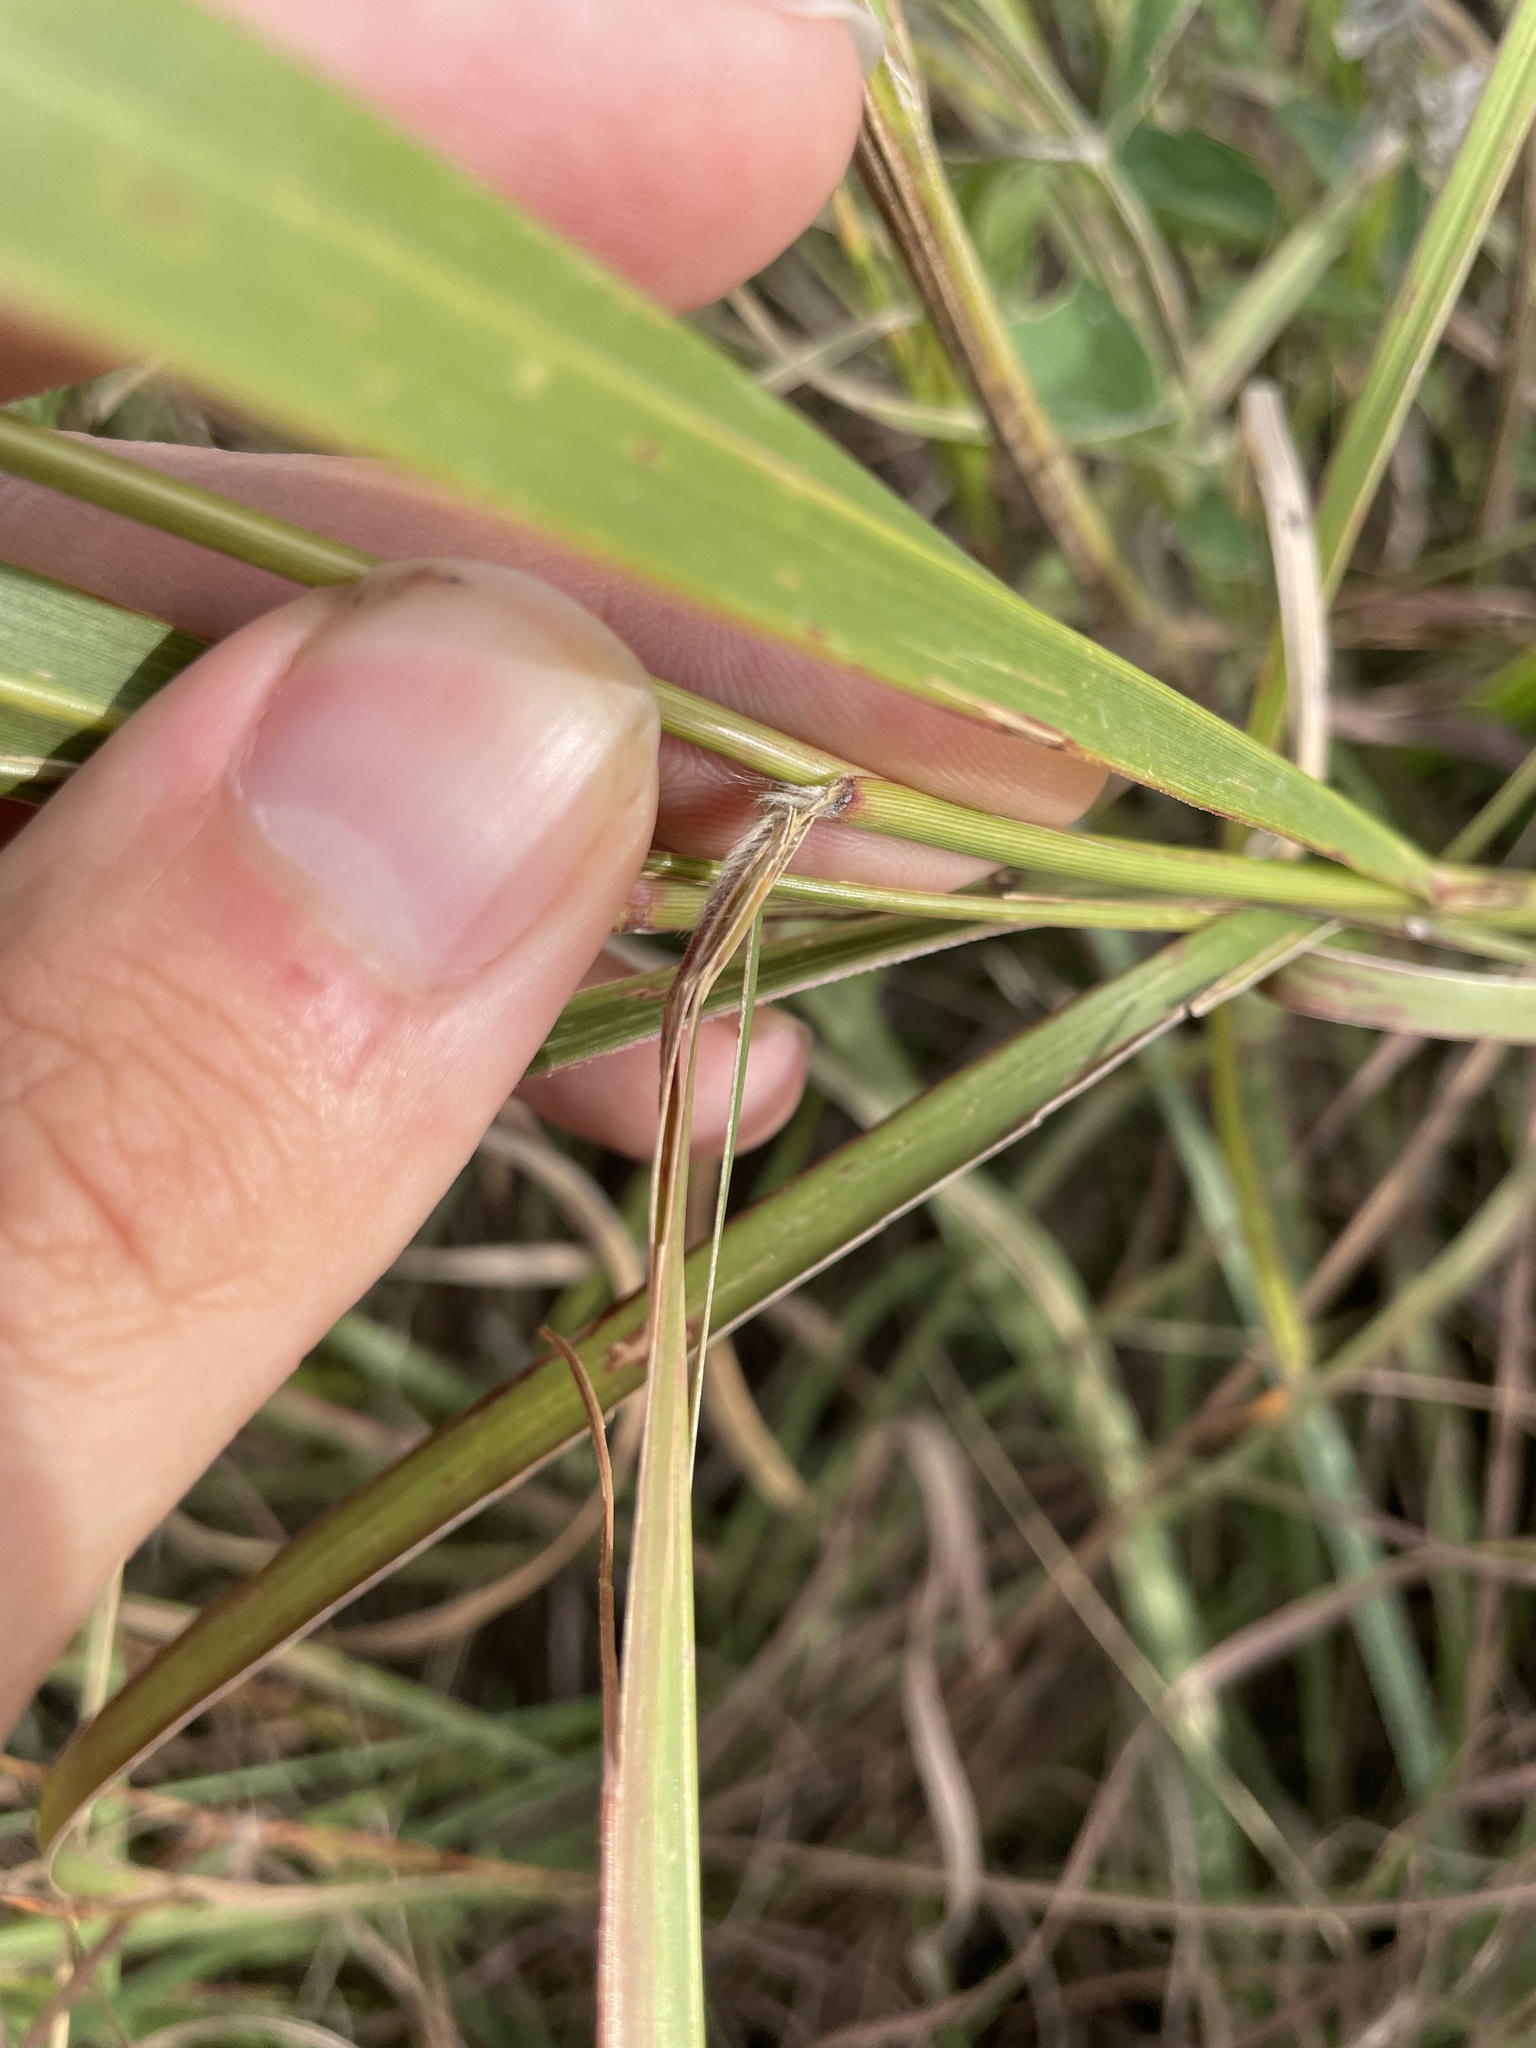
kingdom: Plantae
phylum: Tracheophyta
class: Liliopsida
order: Poales
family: Poaceae
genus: Panicum
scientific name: Panicum virgatum
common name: Switchgrass
